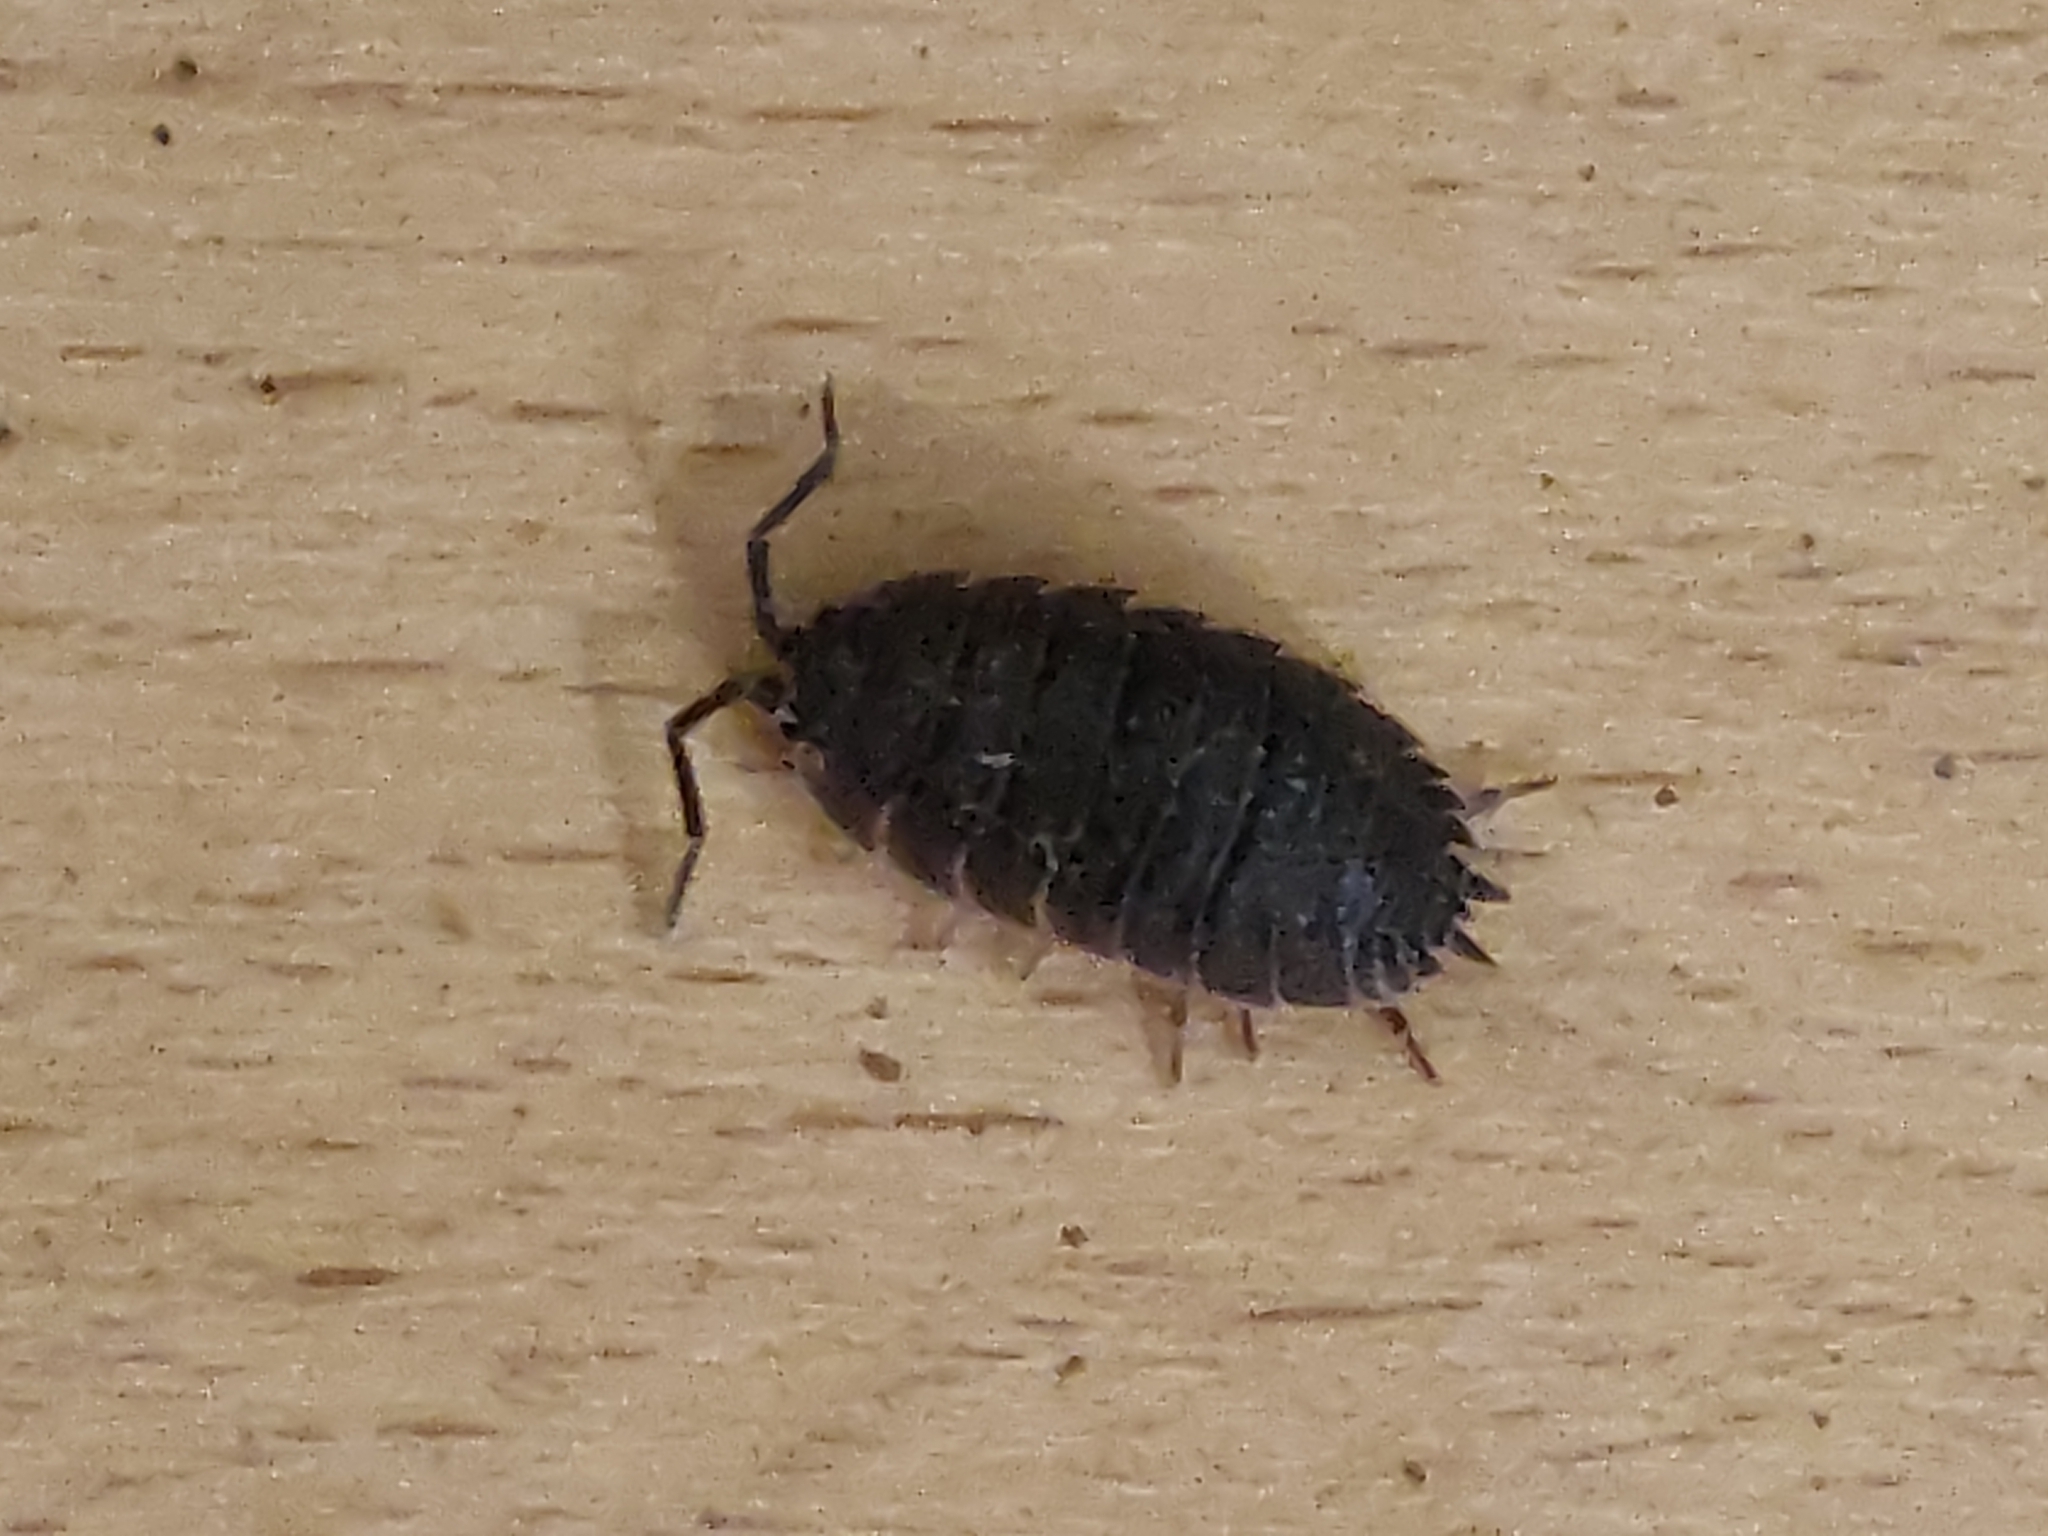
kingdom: Animalia
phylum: Arthropoda
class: Malacostraca
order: Isopoda
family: Porcellionidae
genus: Porcellio
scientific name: Porcellio scaber
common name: Common rough woodlouse
